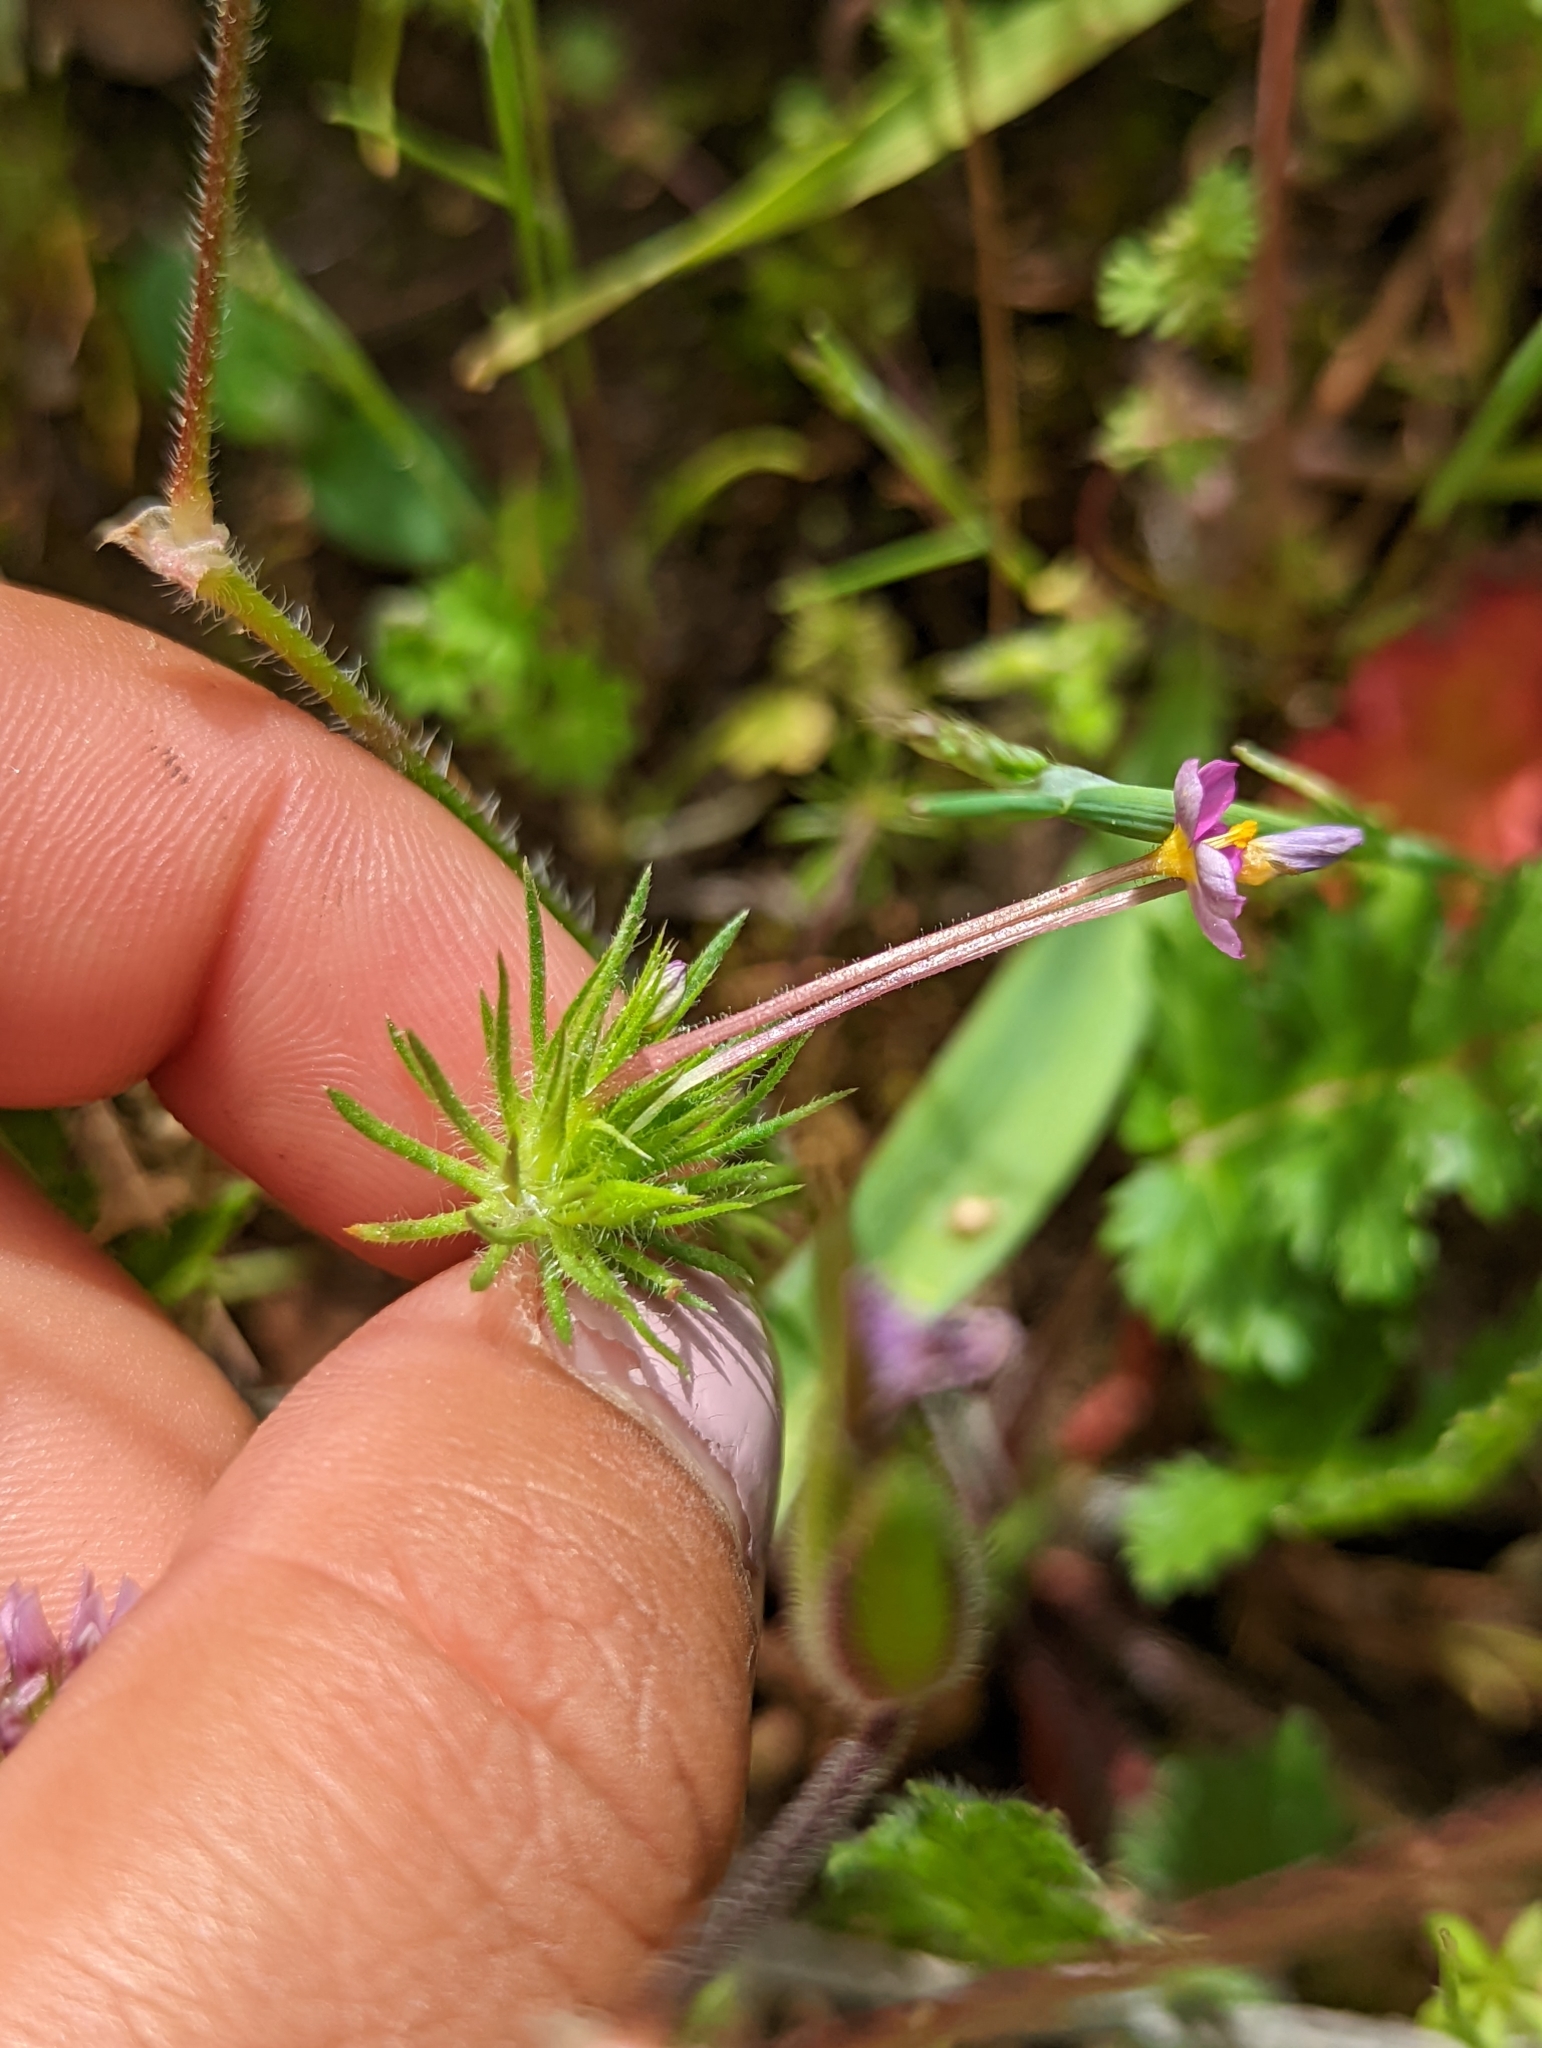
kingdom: Plantae
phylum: Tracheophyta
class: Magnoliopsida
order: Ericales
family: Polemoniaceae
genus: Leptosiphon
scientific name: Leptosiphon bicolor
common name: True babystars
